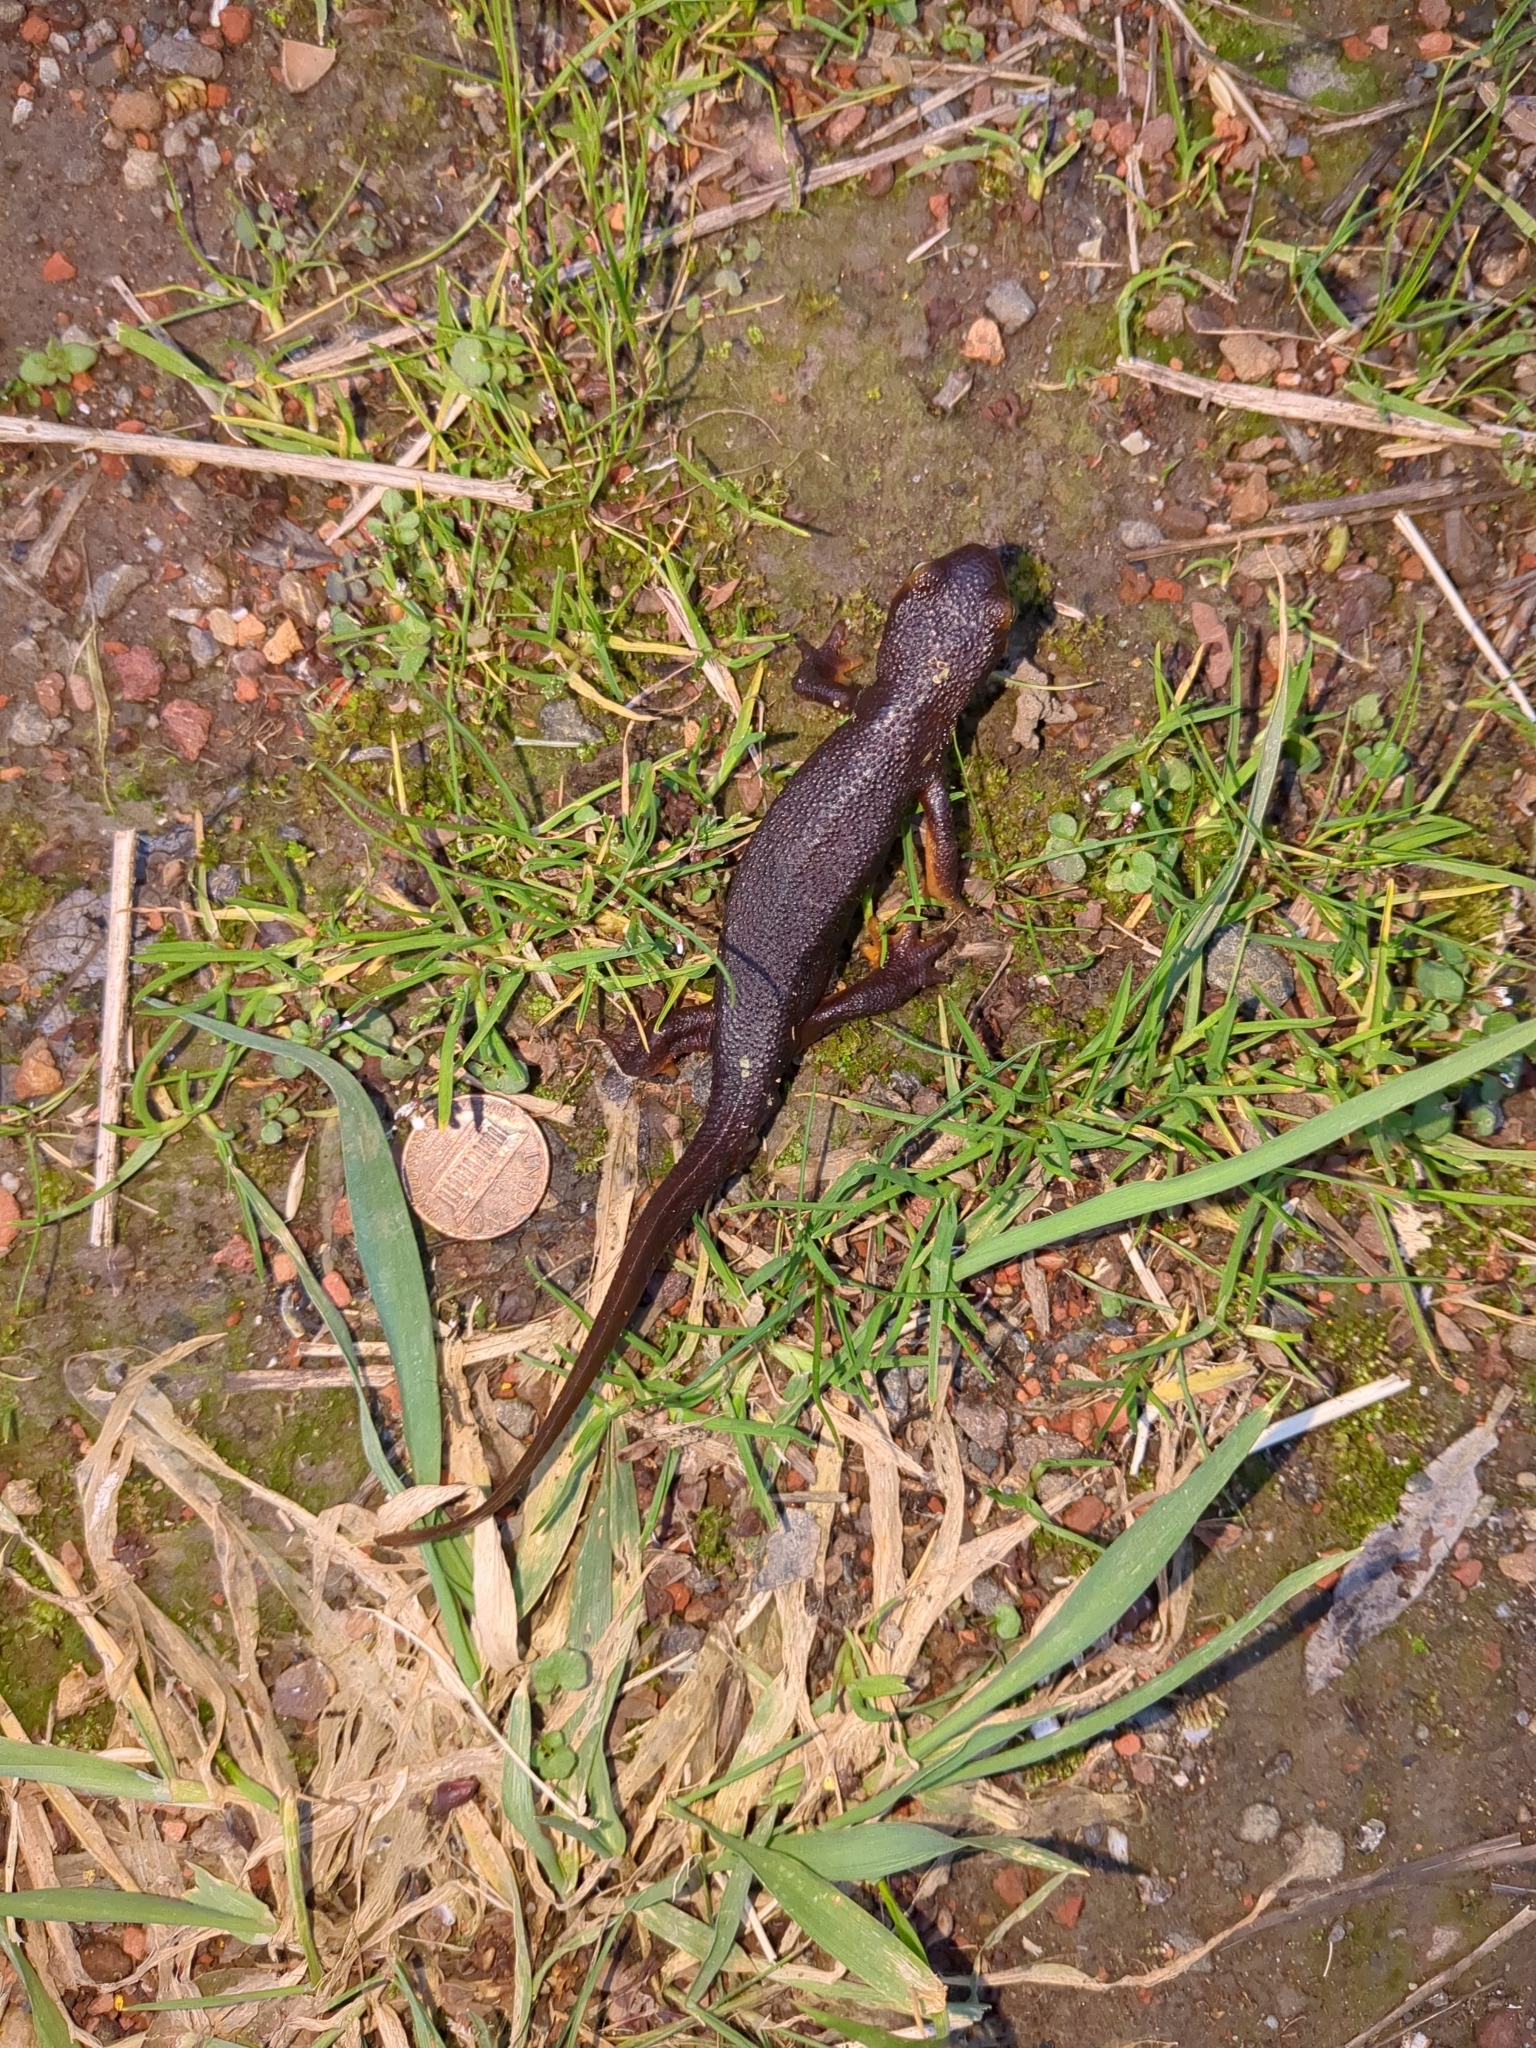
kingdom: Animalia
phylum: Chordata
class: Amphibia
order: Caudata
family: Salamandridae
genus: Taricha
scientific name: Taricha torosa
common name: California newt
